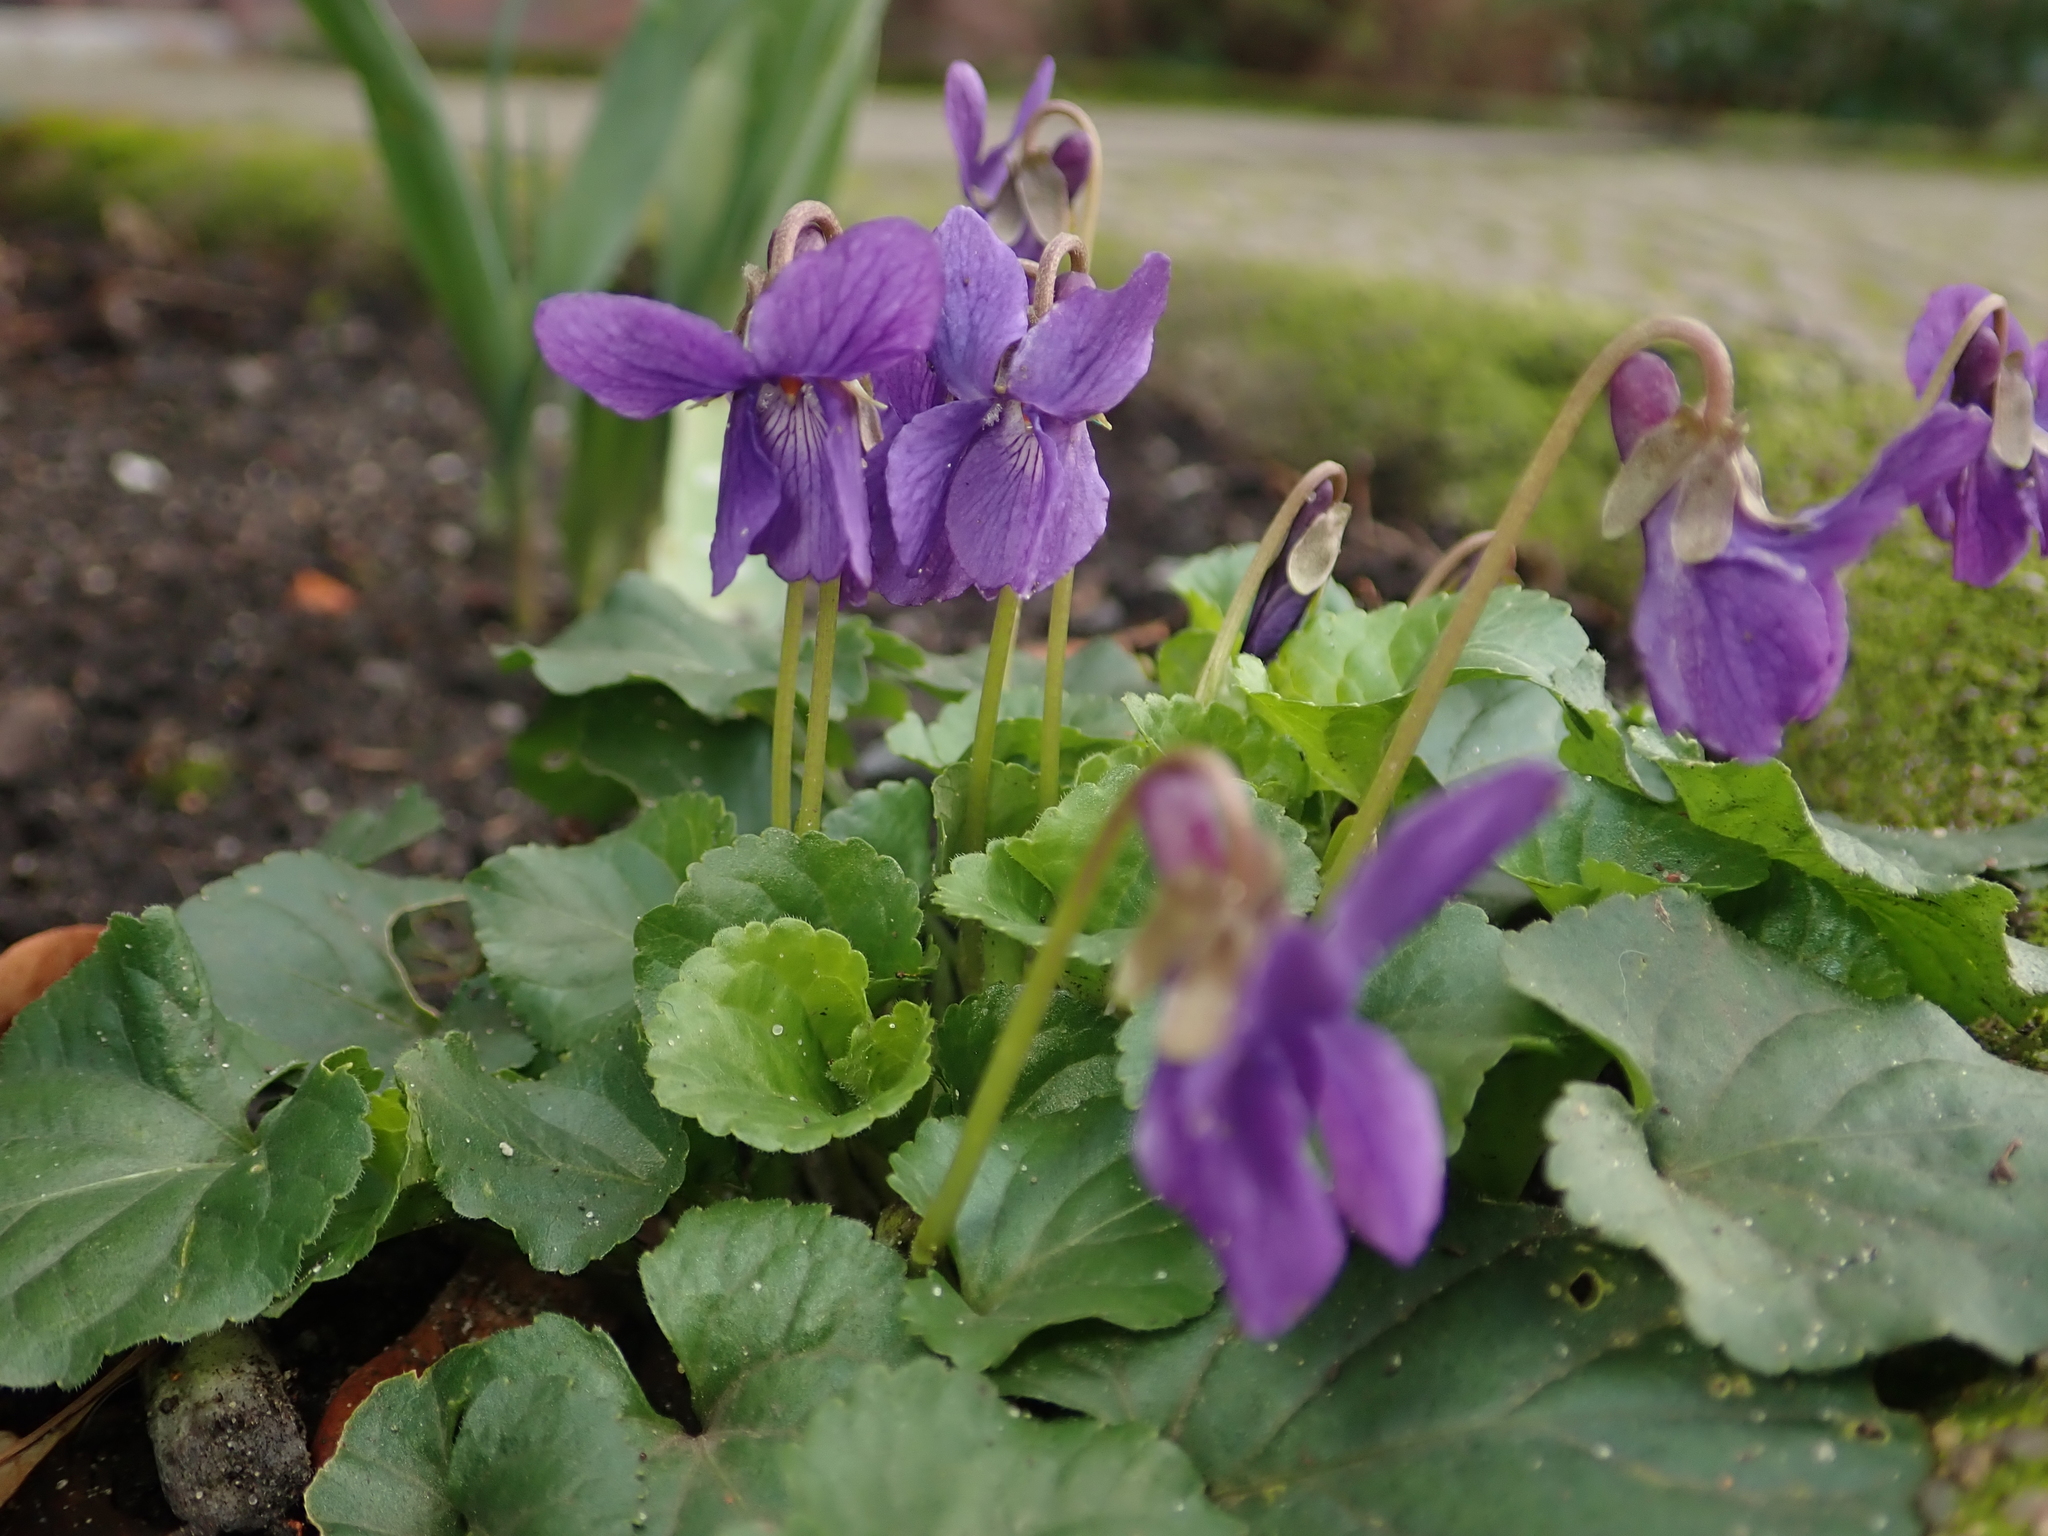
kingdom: Plantae
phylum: Tracheophyta
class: Magnoliopsida
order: Malpighiales
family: Violaceae
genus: Viola
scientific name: Viola odorata
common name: Sweet violet
